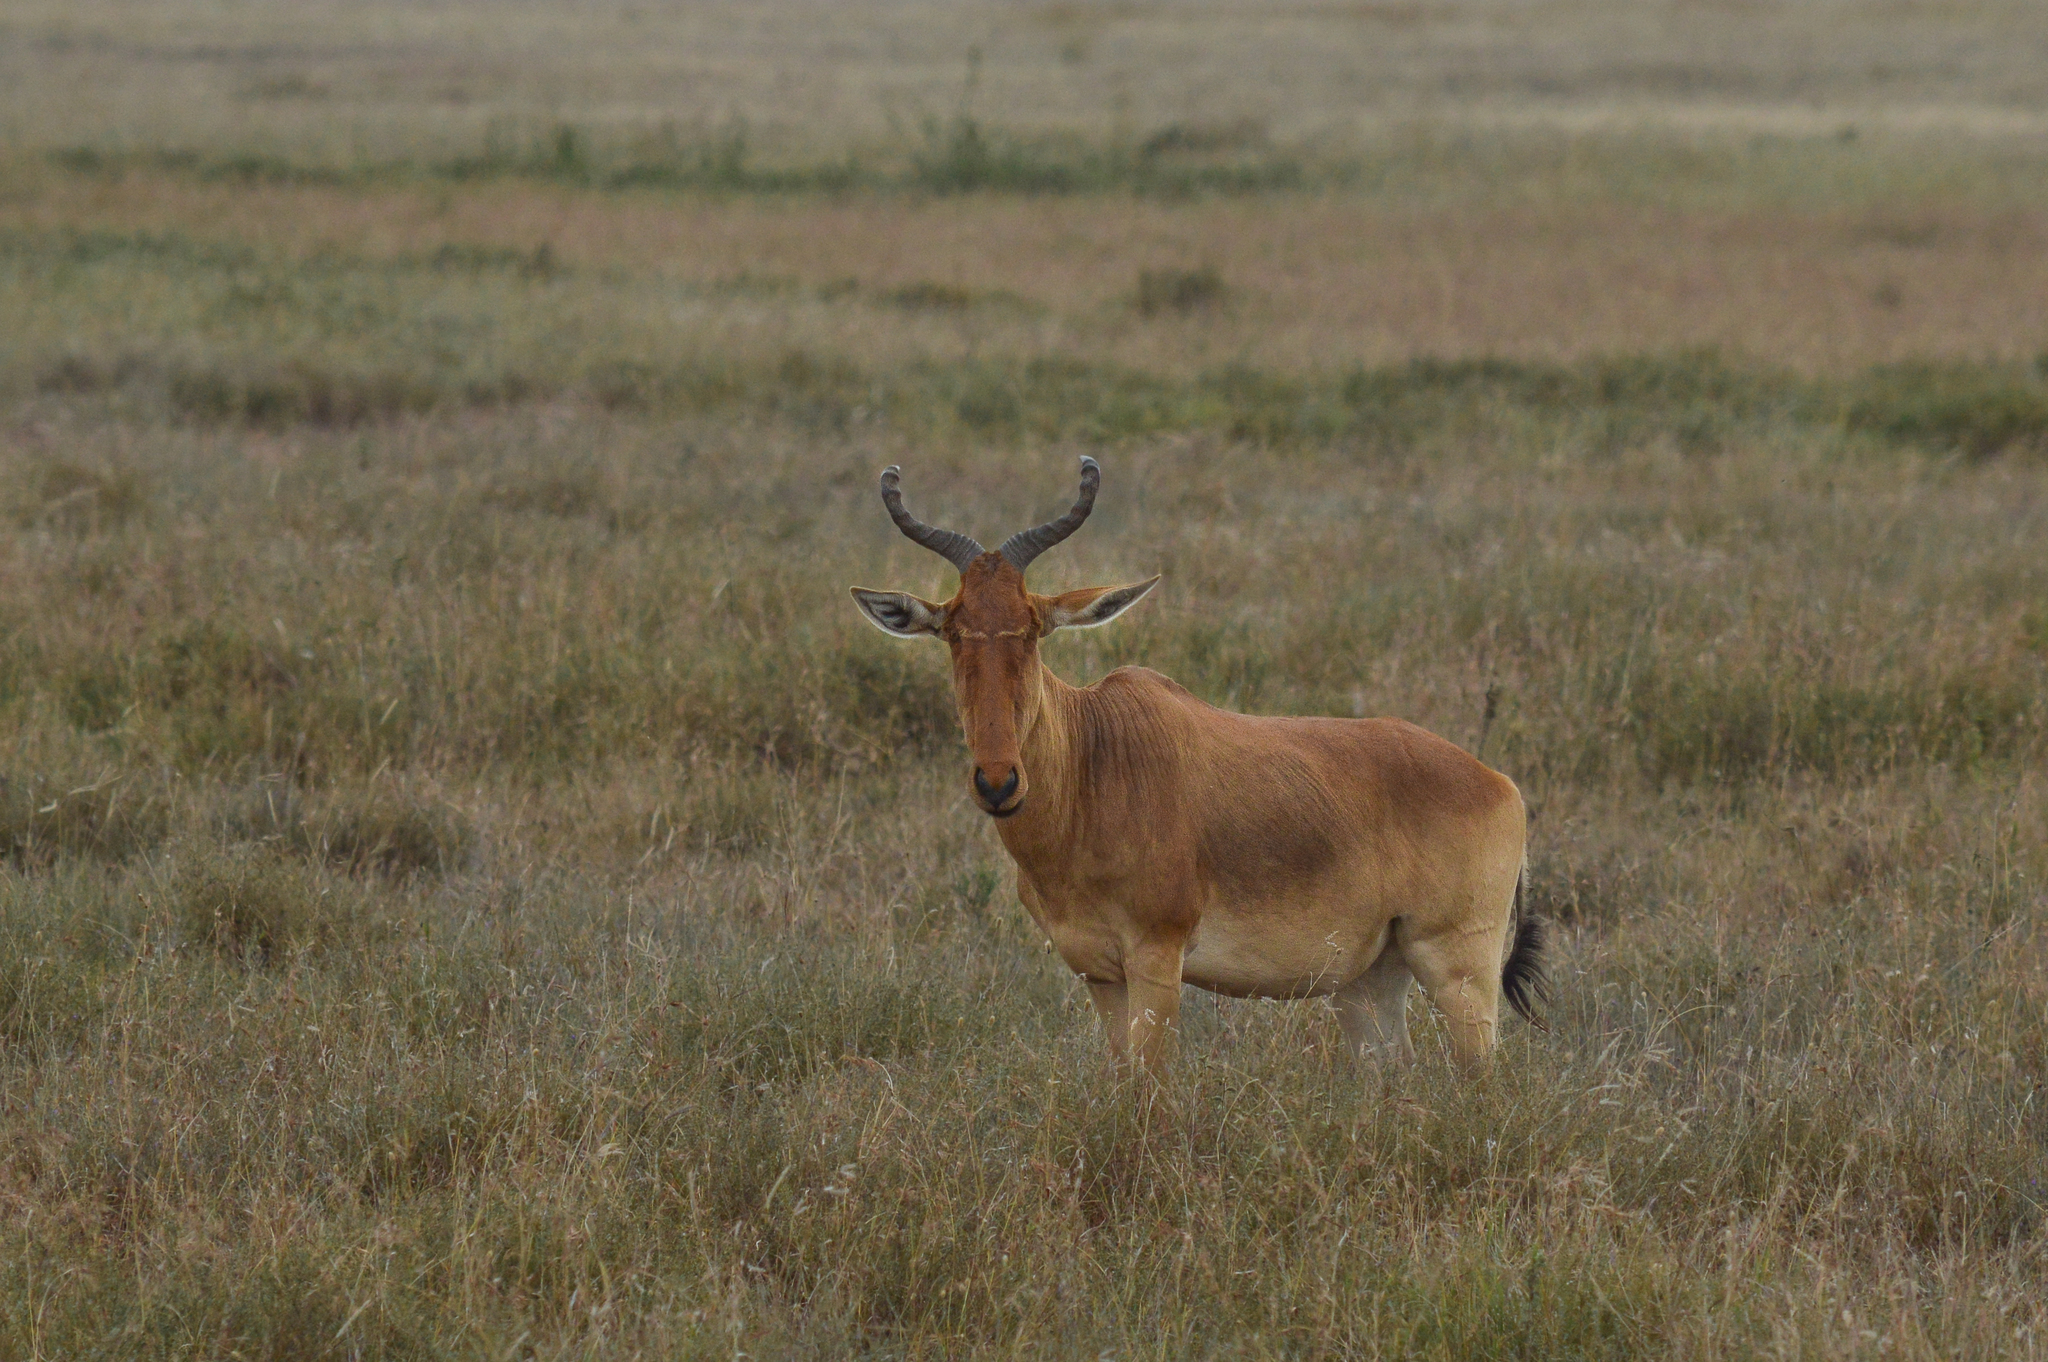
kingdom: Animalia
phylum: Chordata
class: Mammalia
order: Artiodactyla
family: Bovidae
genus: Alcelaphus
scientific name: Alcelaphus buselaphus
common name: Hartebeest
